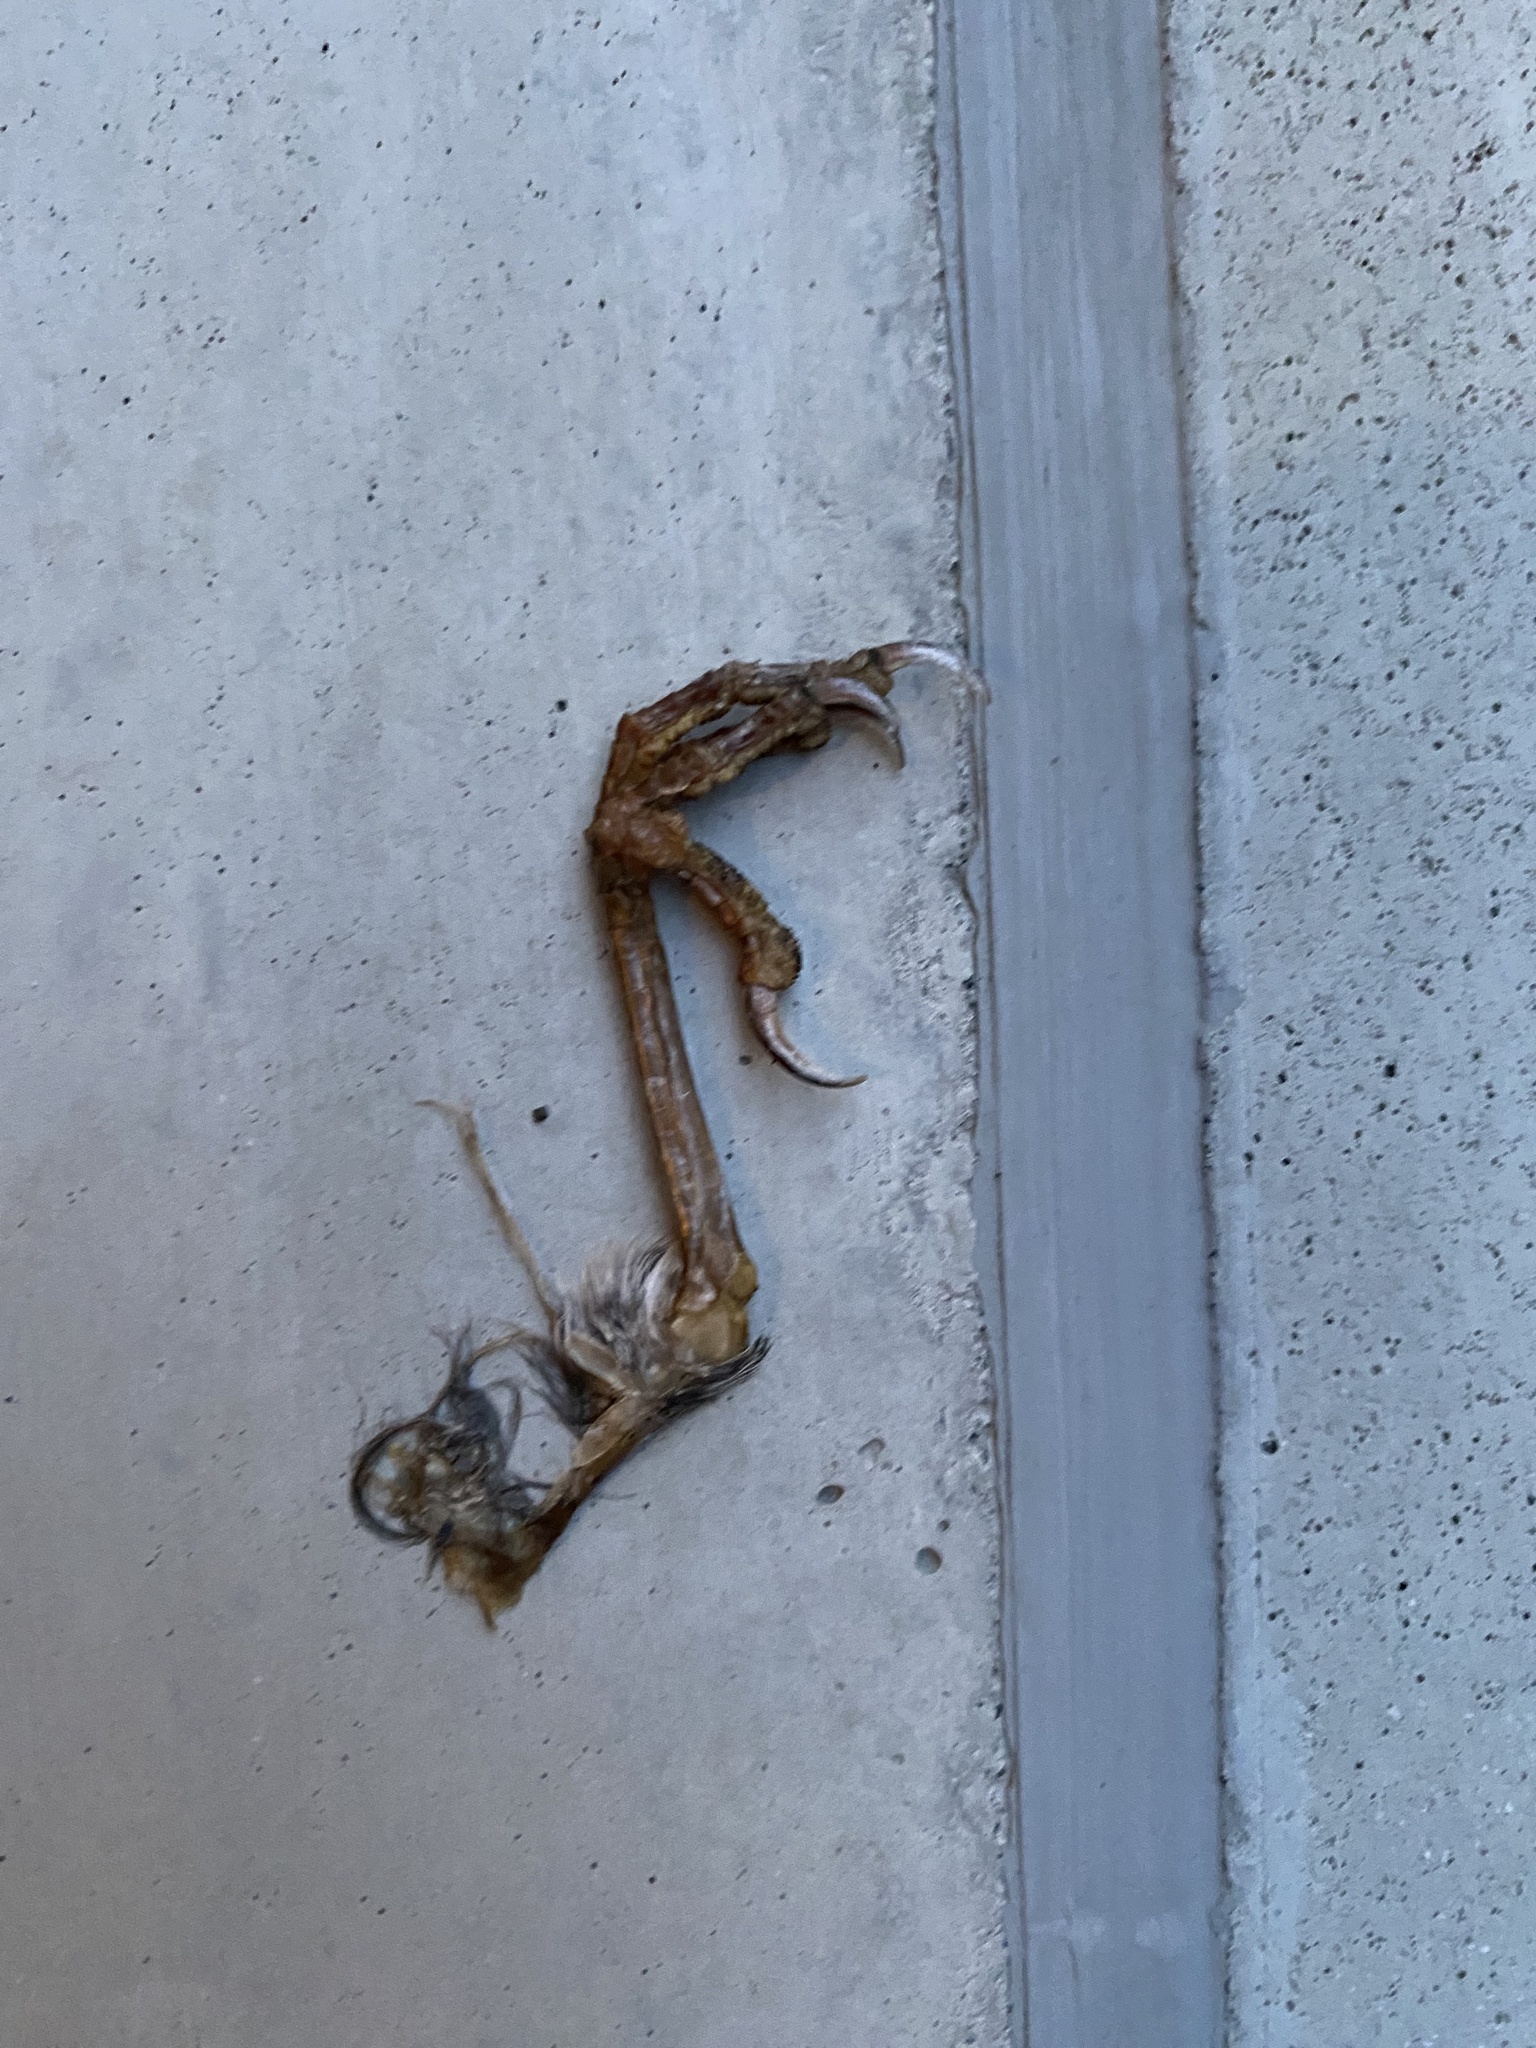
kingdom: Animalia
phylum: Chordata
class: Aves
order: Passeriformes
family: Turdidae
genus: Ixoreus
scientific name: Ixoreus naevius
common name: Varied thrush
